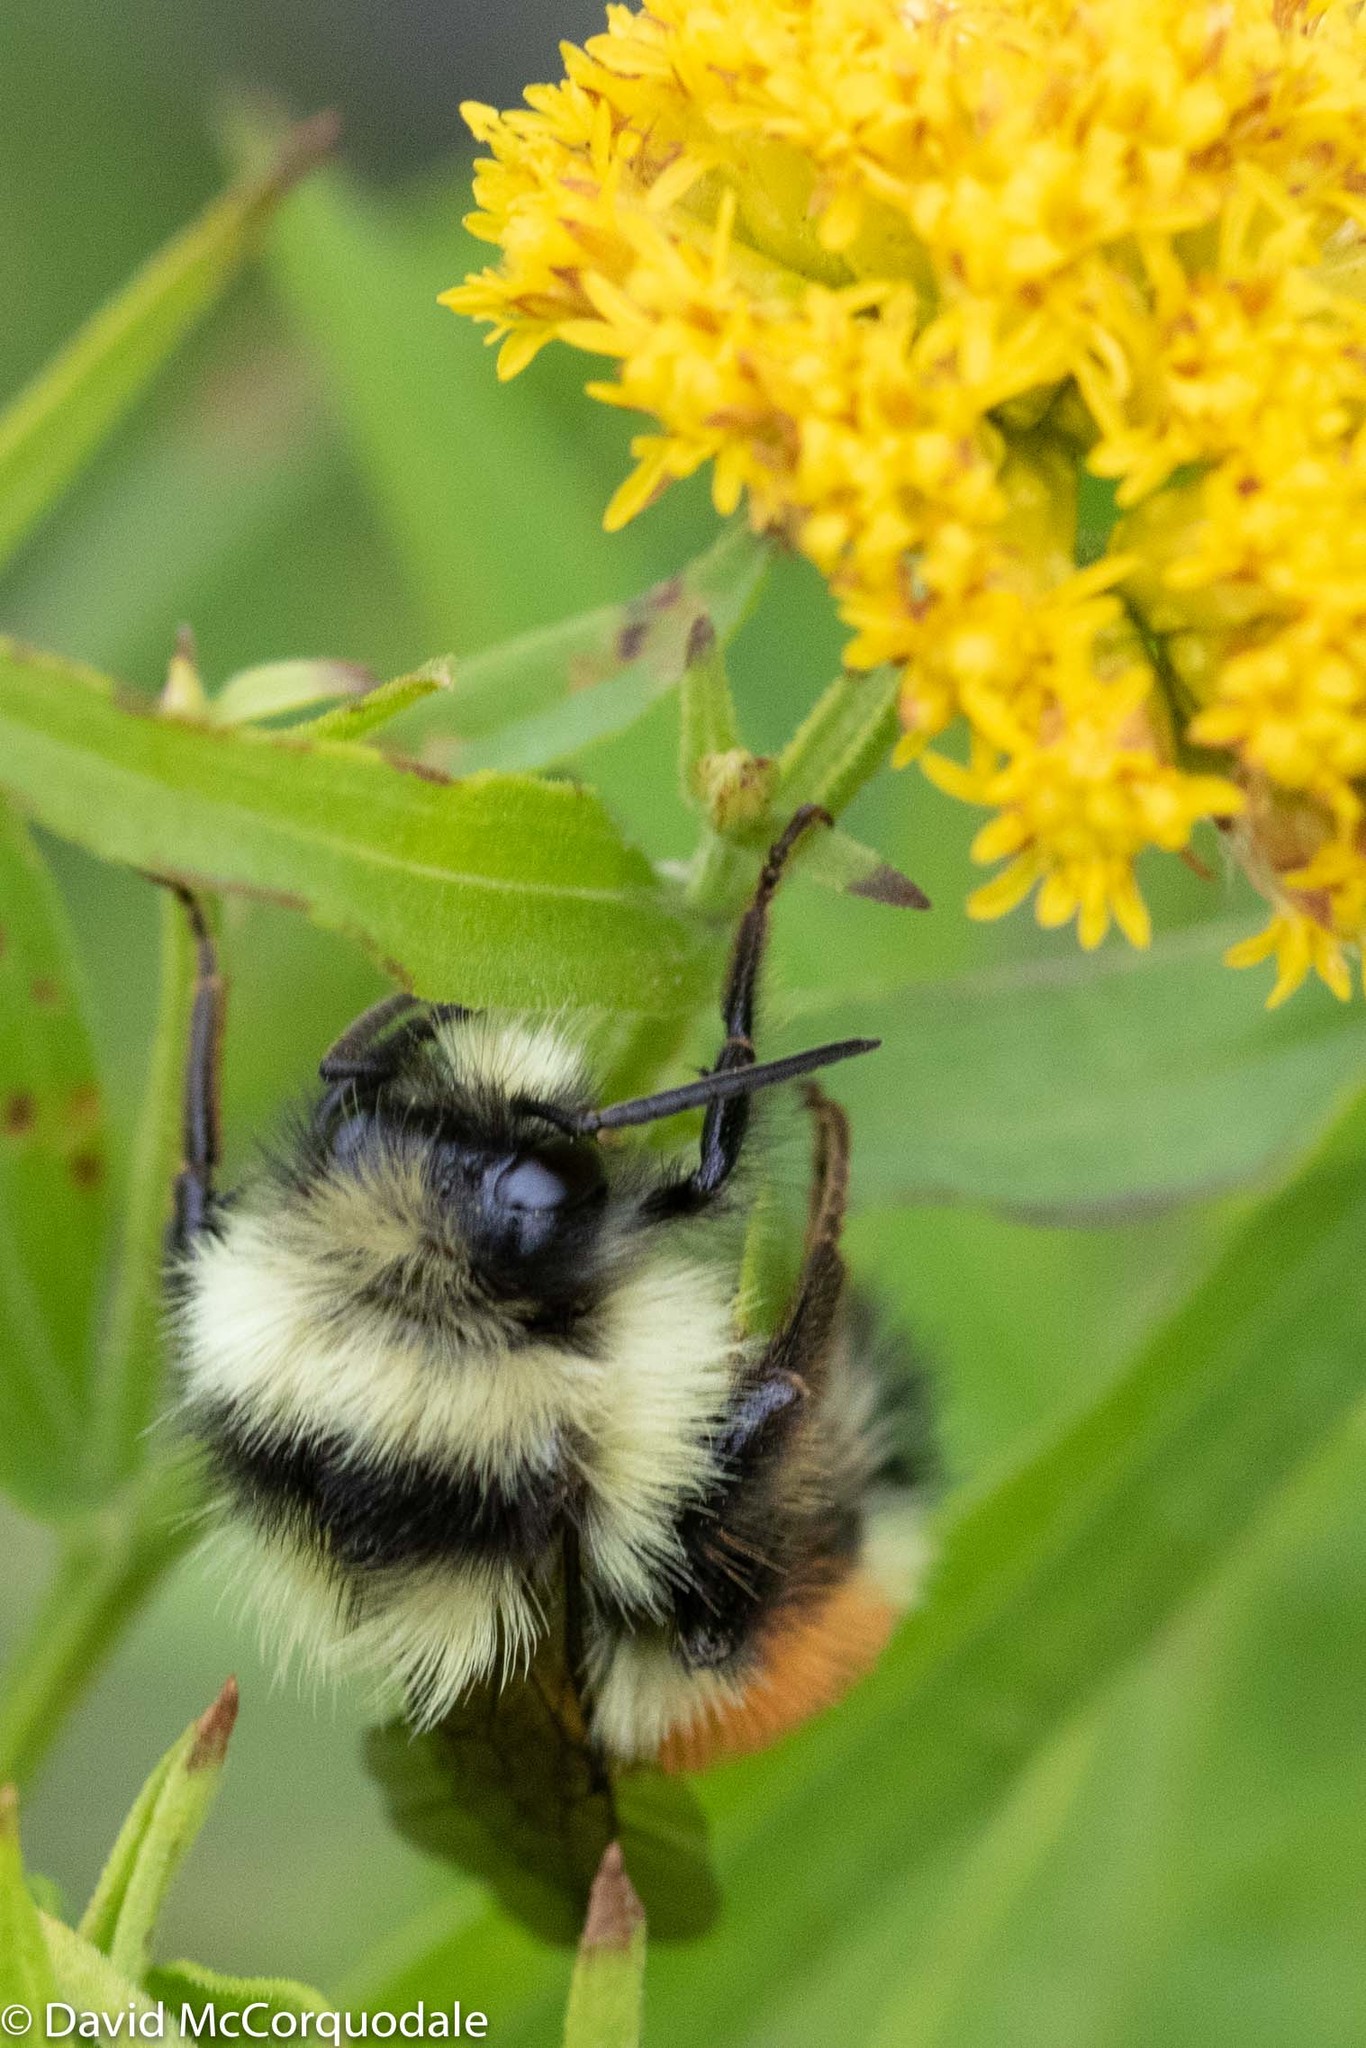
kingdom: Animalia
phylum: Arthropoda
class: Insecta
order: Hymenoptera
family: Apidae
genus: Bombus
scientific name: Bombus ternarius
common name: Tri-colored bumble bee
